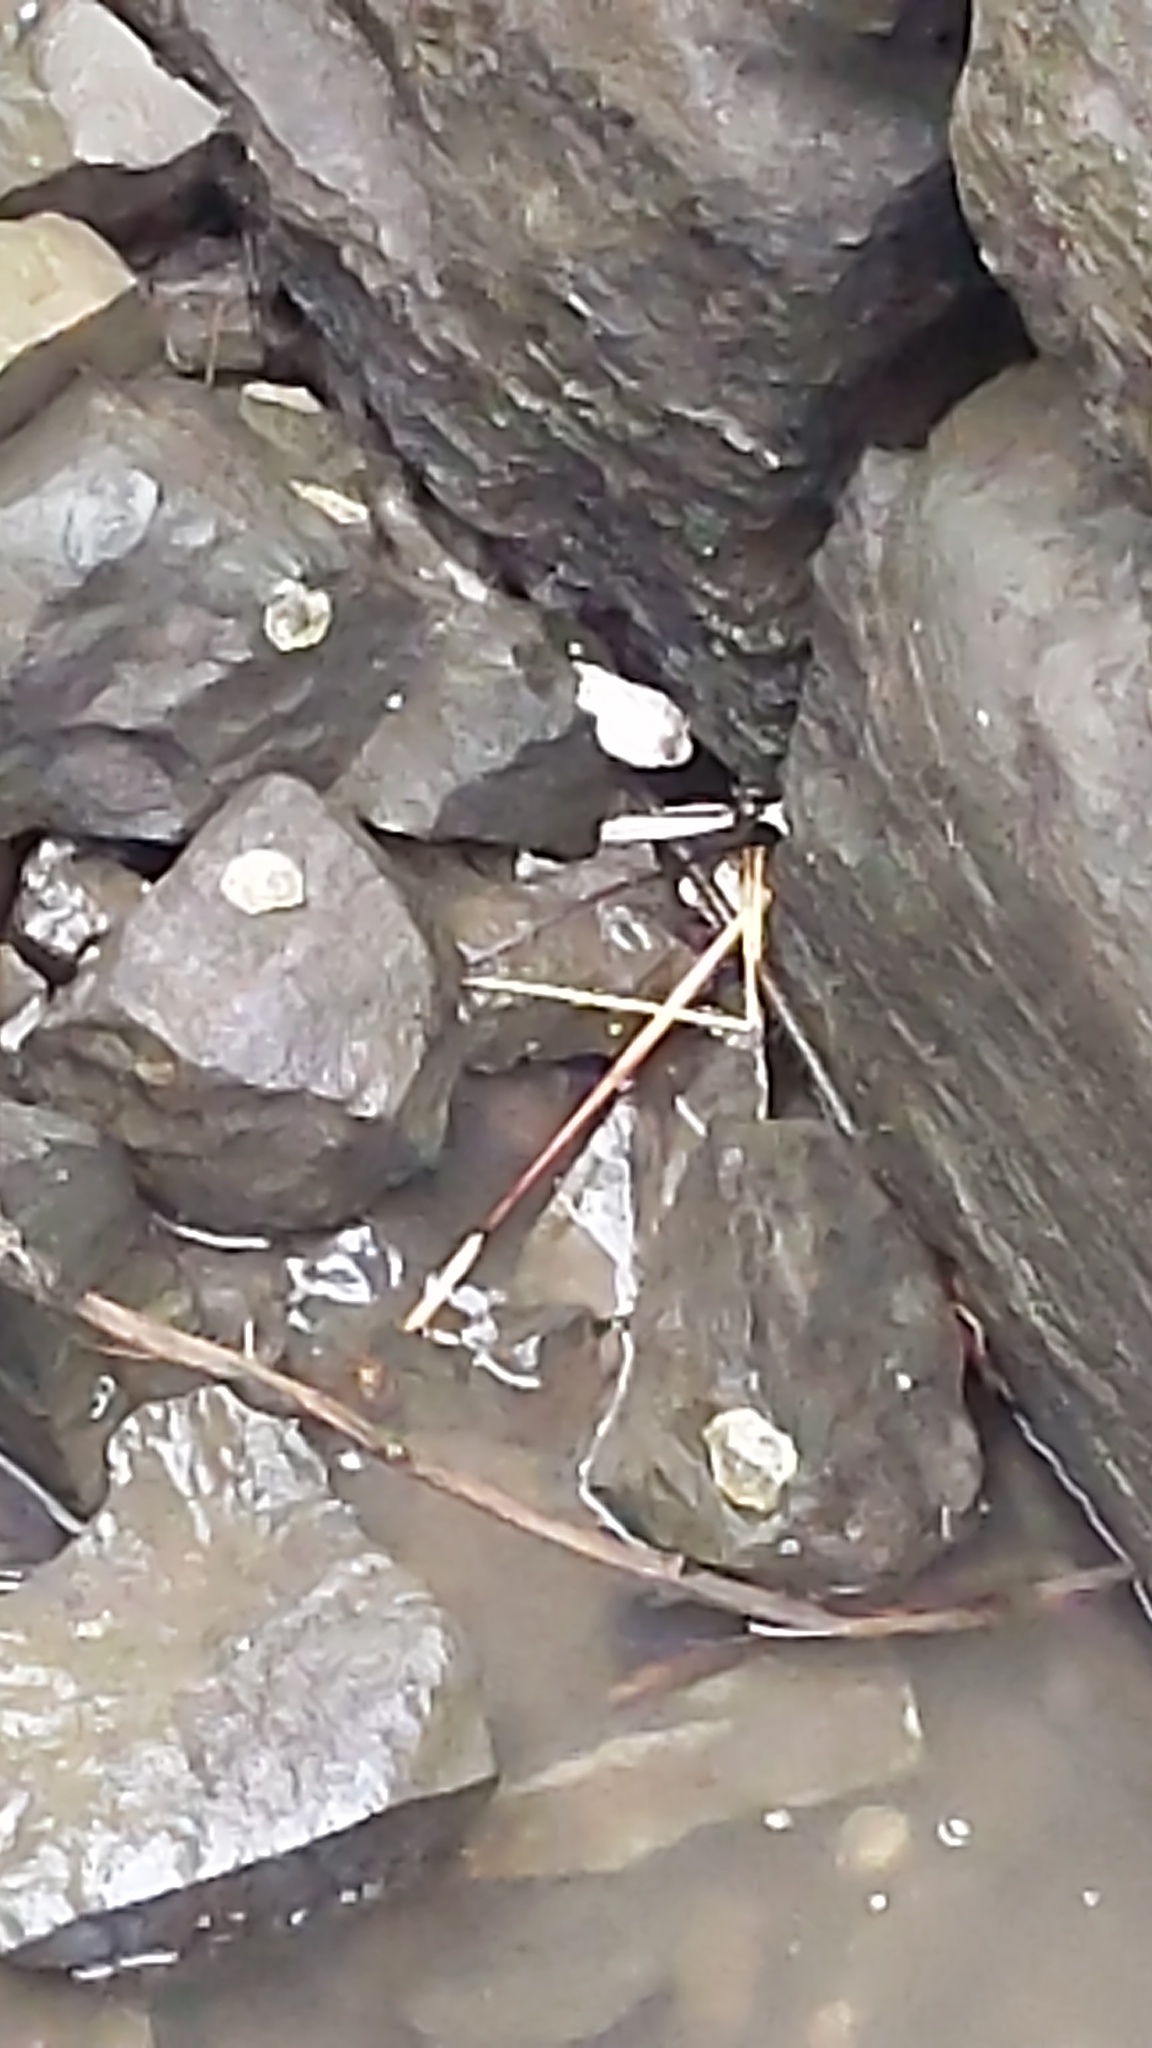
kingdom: Animalia
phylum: Mollusca
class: Bivalvia
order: Ostreida
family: Ostreidae
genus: Crassostrea
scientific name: Crassostrea virginica
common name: American oyster
